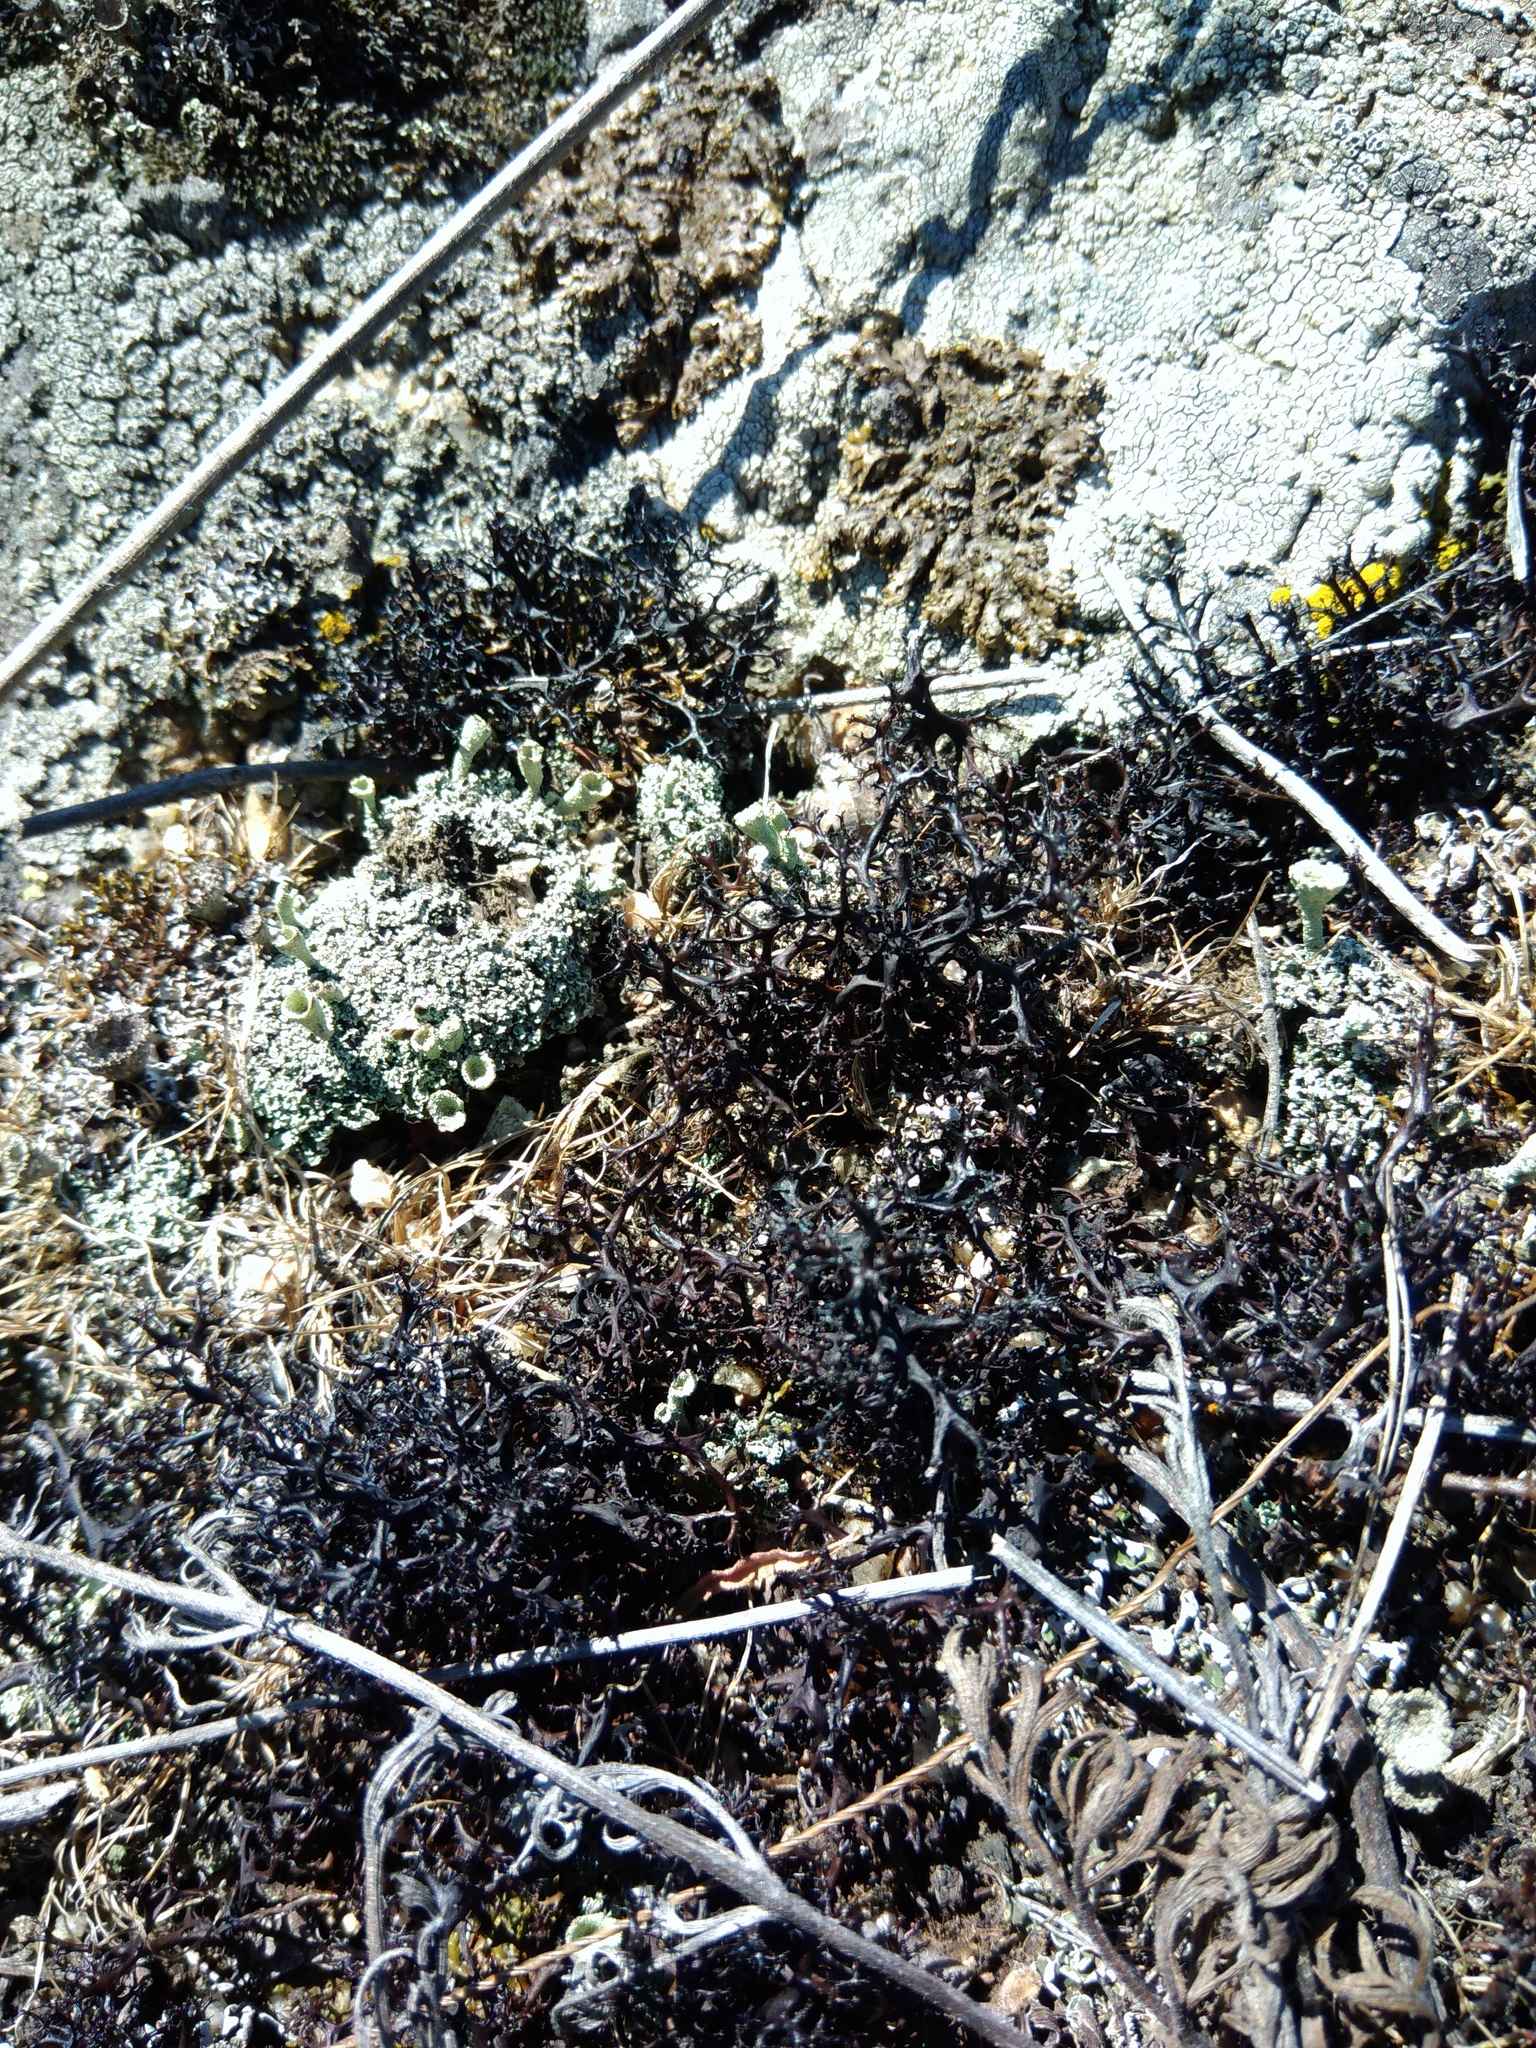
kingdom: Fungi
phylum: Ascomycota
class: Lecanoromycetes
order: Lecanorales
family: Parmeliaceae
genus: Cetraria
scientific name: Cetraria aculeata
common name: Spiny heath lichen
